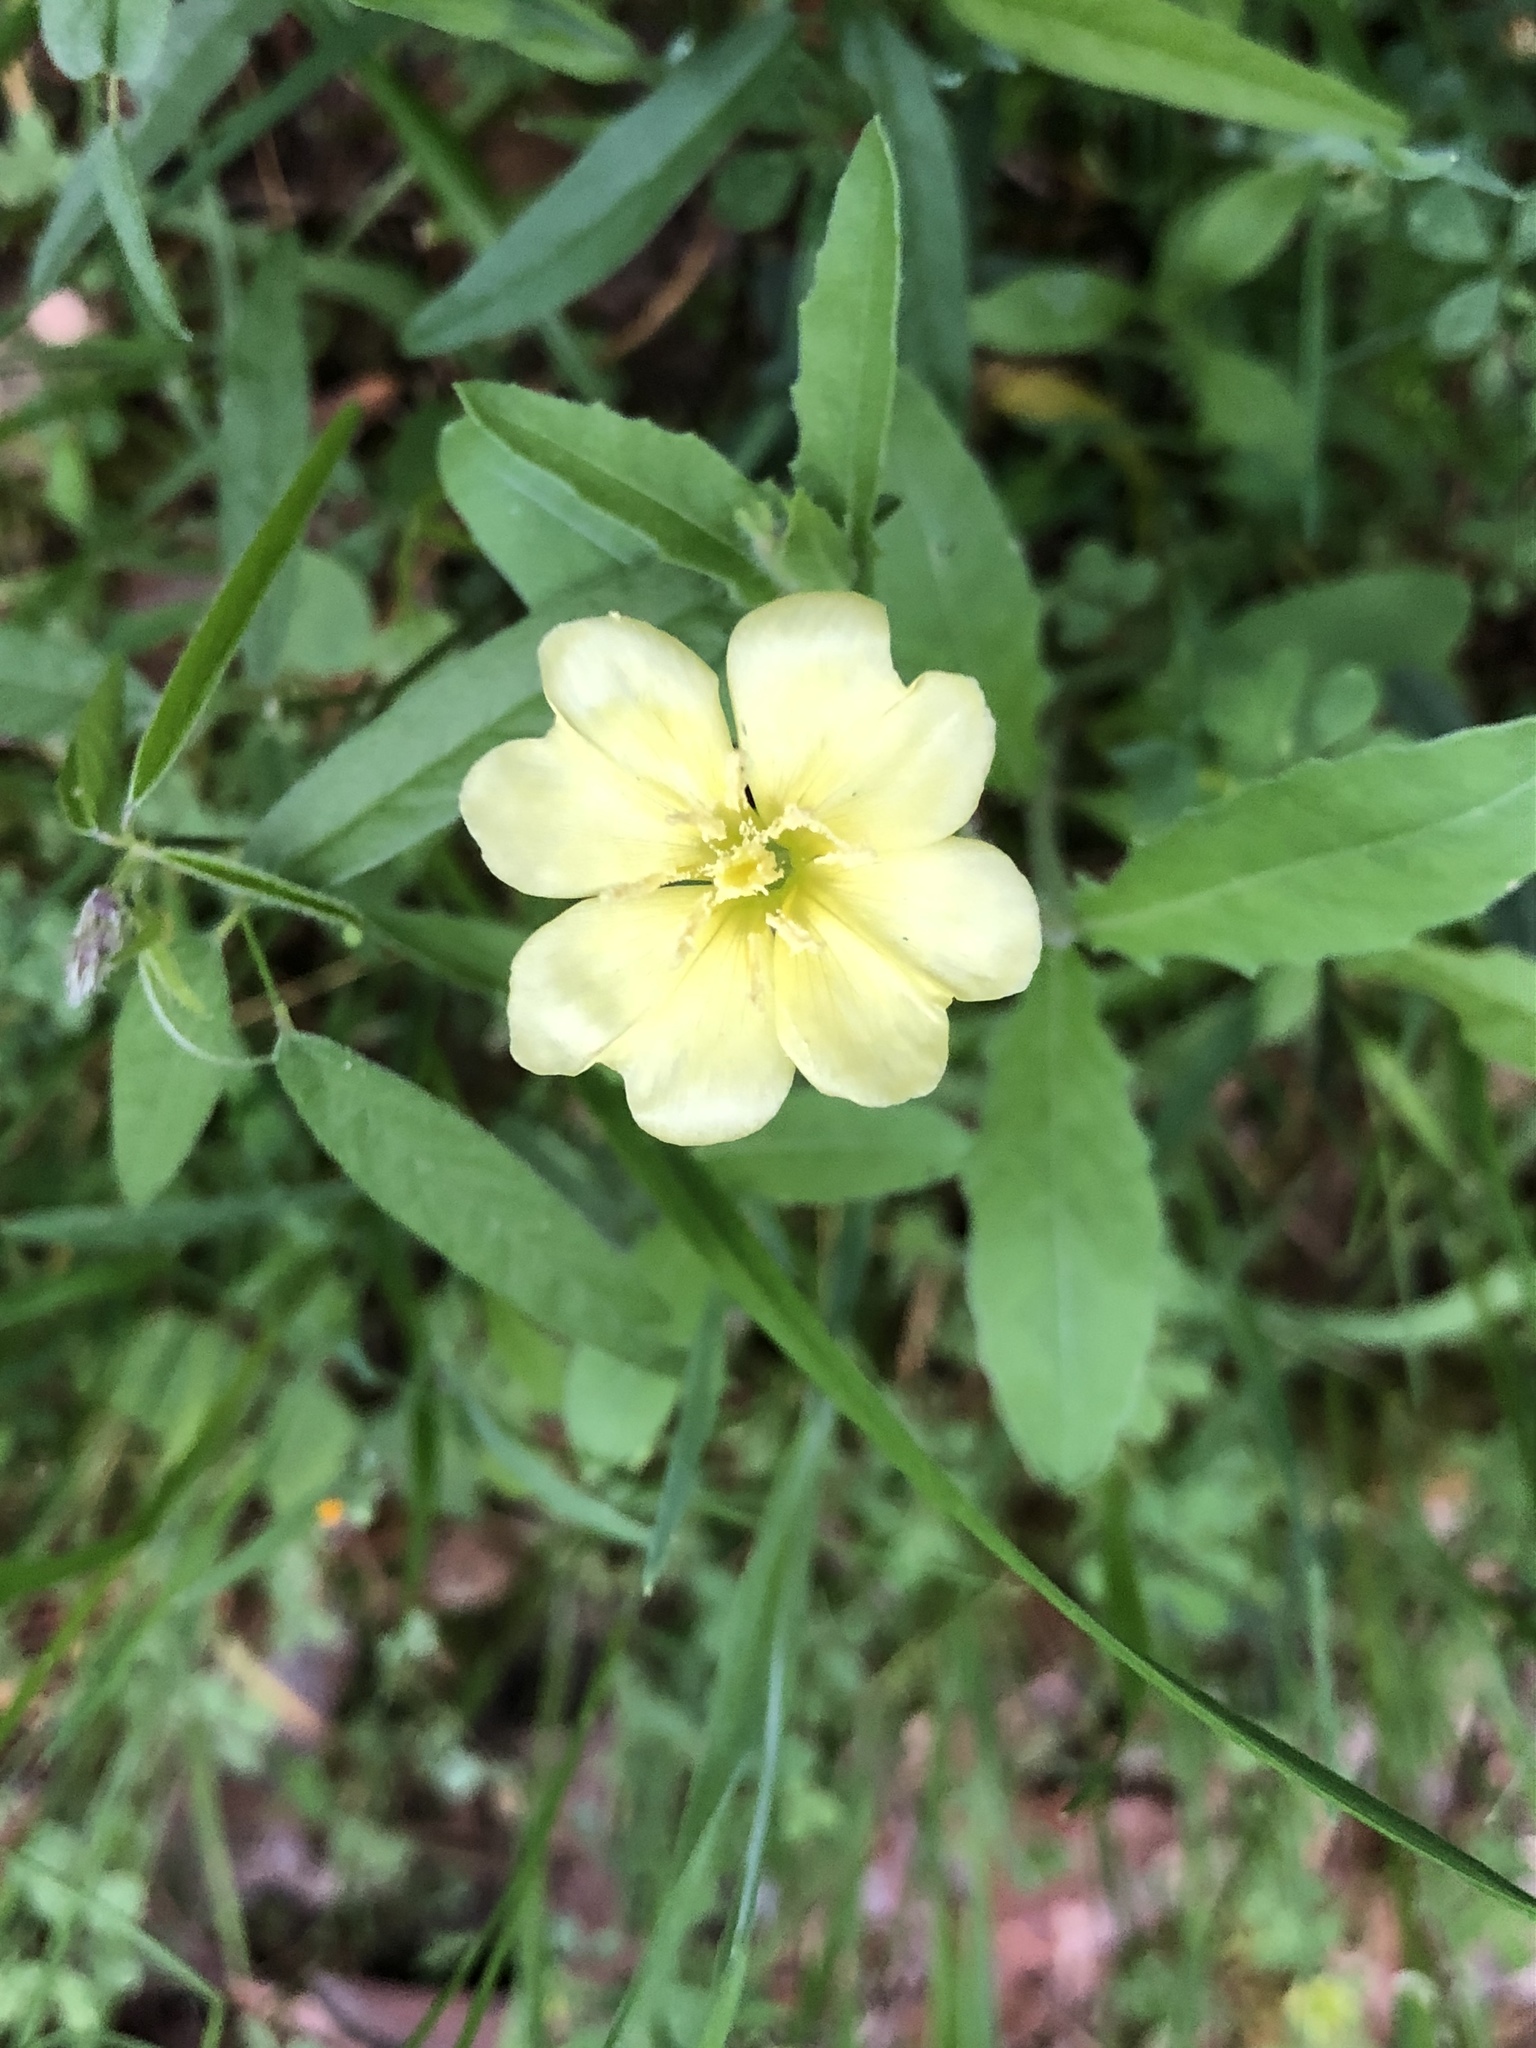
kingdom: Plantae
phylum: Tracheophyta
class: Magnoliopsida
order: Myrtales
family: Onagraceae
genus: Oenothera
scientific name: Oenothera laciniata
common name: Cut-leaved evening-primrose
